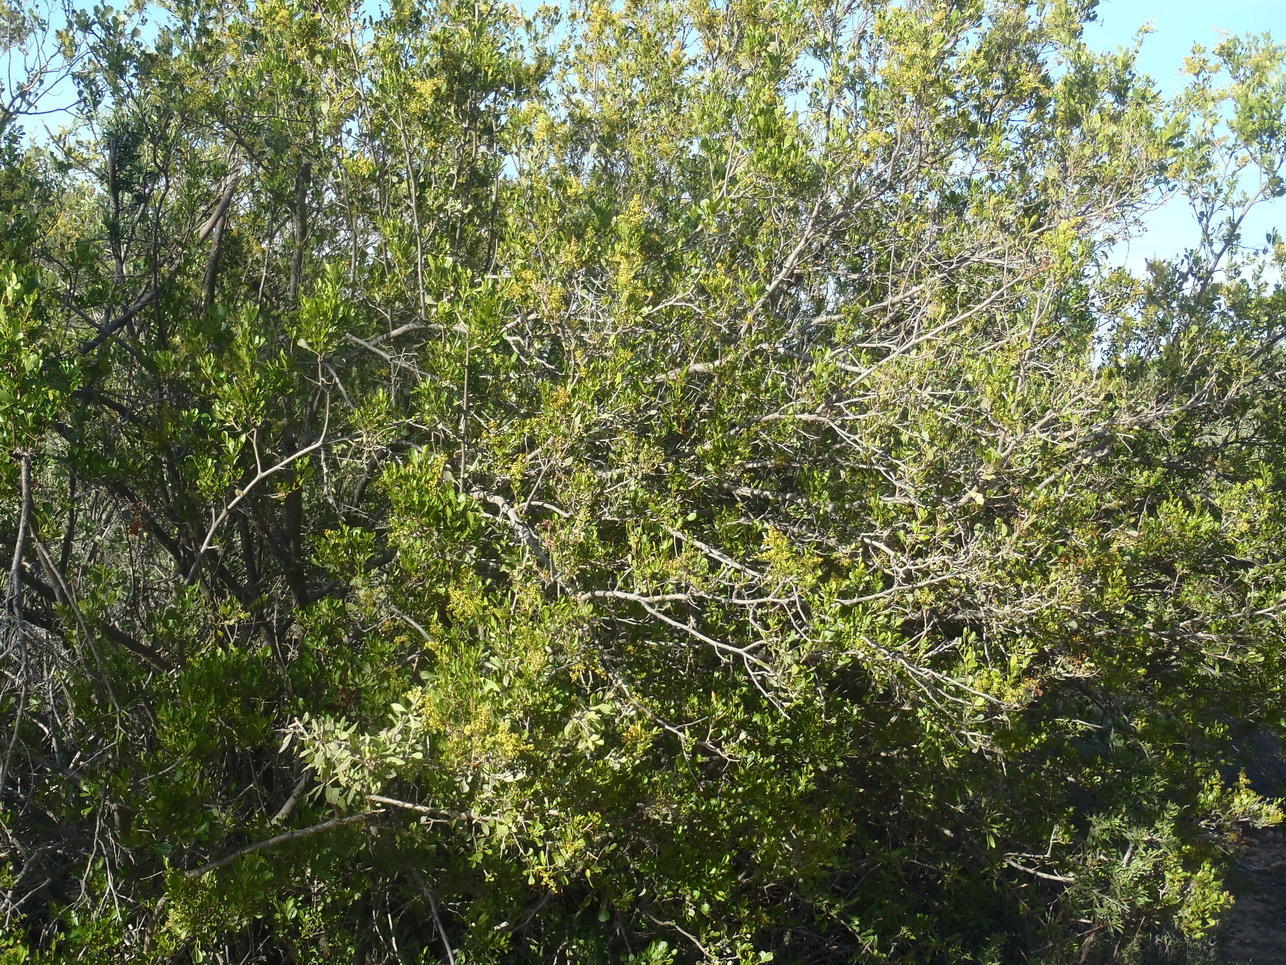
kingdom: Plantae
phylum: Tracheophyta
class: Magnoliopsida
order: Sapindales
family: Anacardiaceae
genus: Searsia
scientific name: Searsia pallens
